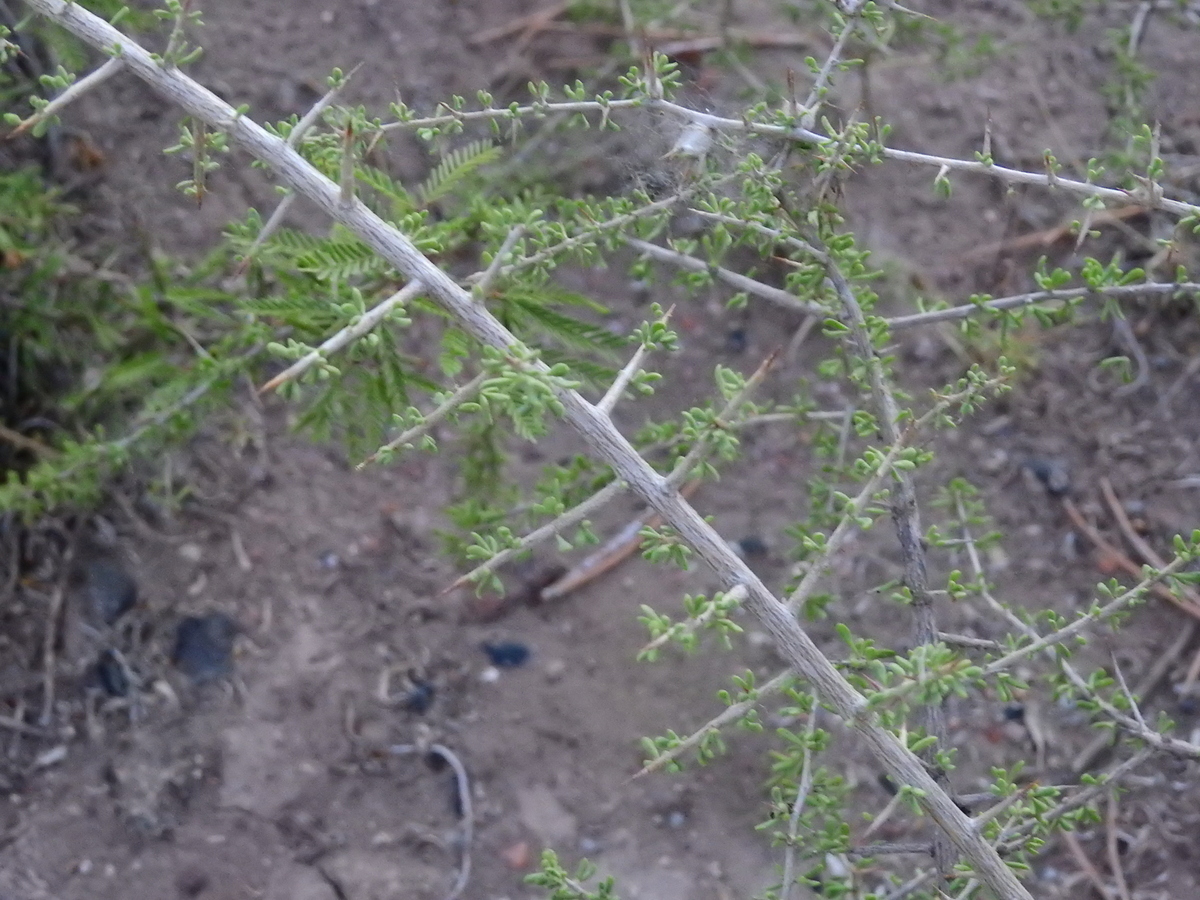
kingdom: Plantae
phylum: Tracheophyta
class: Magnoliopsida
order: Solanales
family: Solanaceae
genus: Lycium
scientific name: Lycium tenuispinosum
